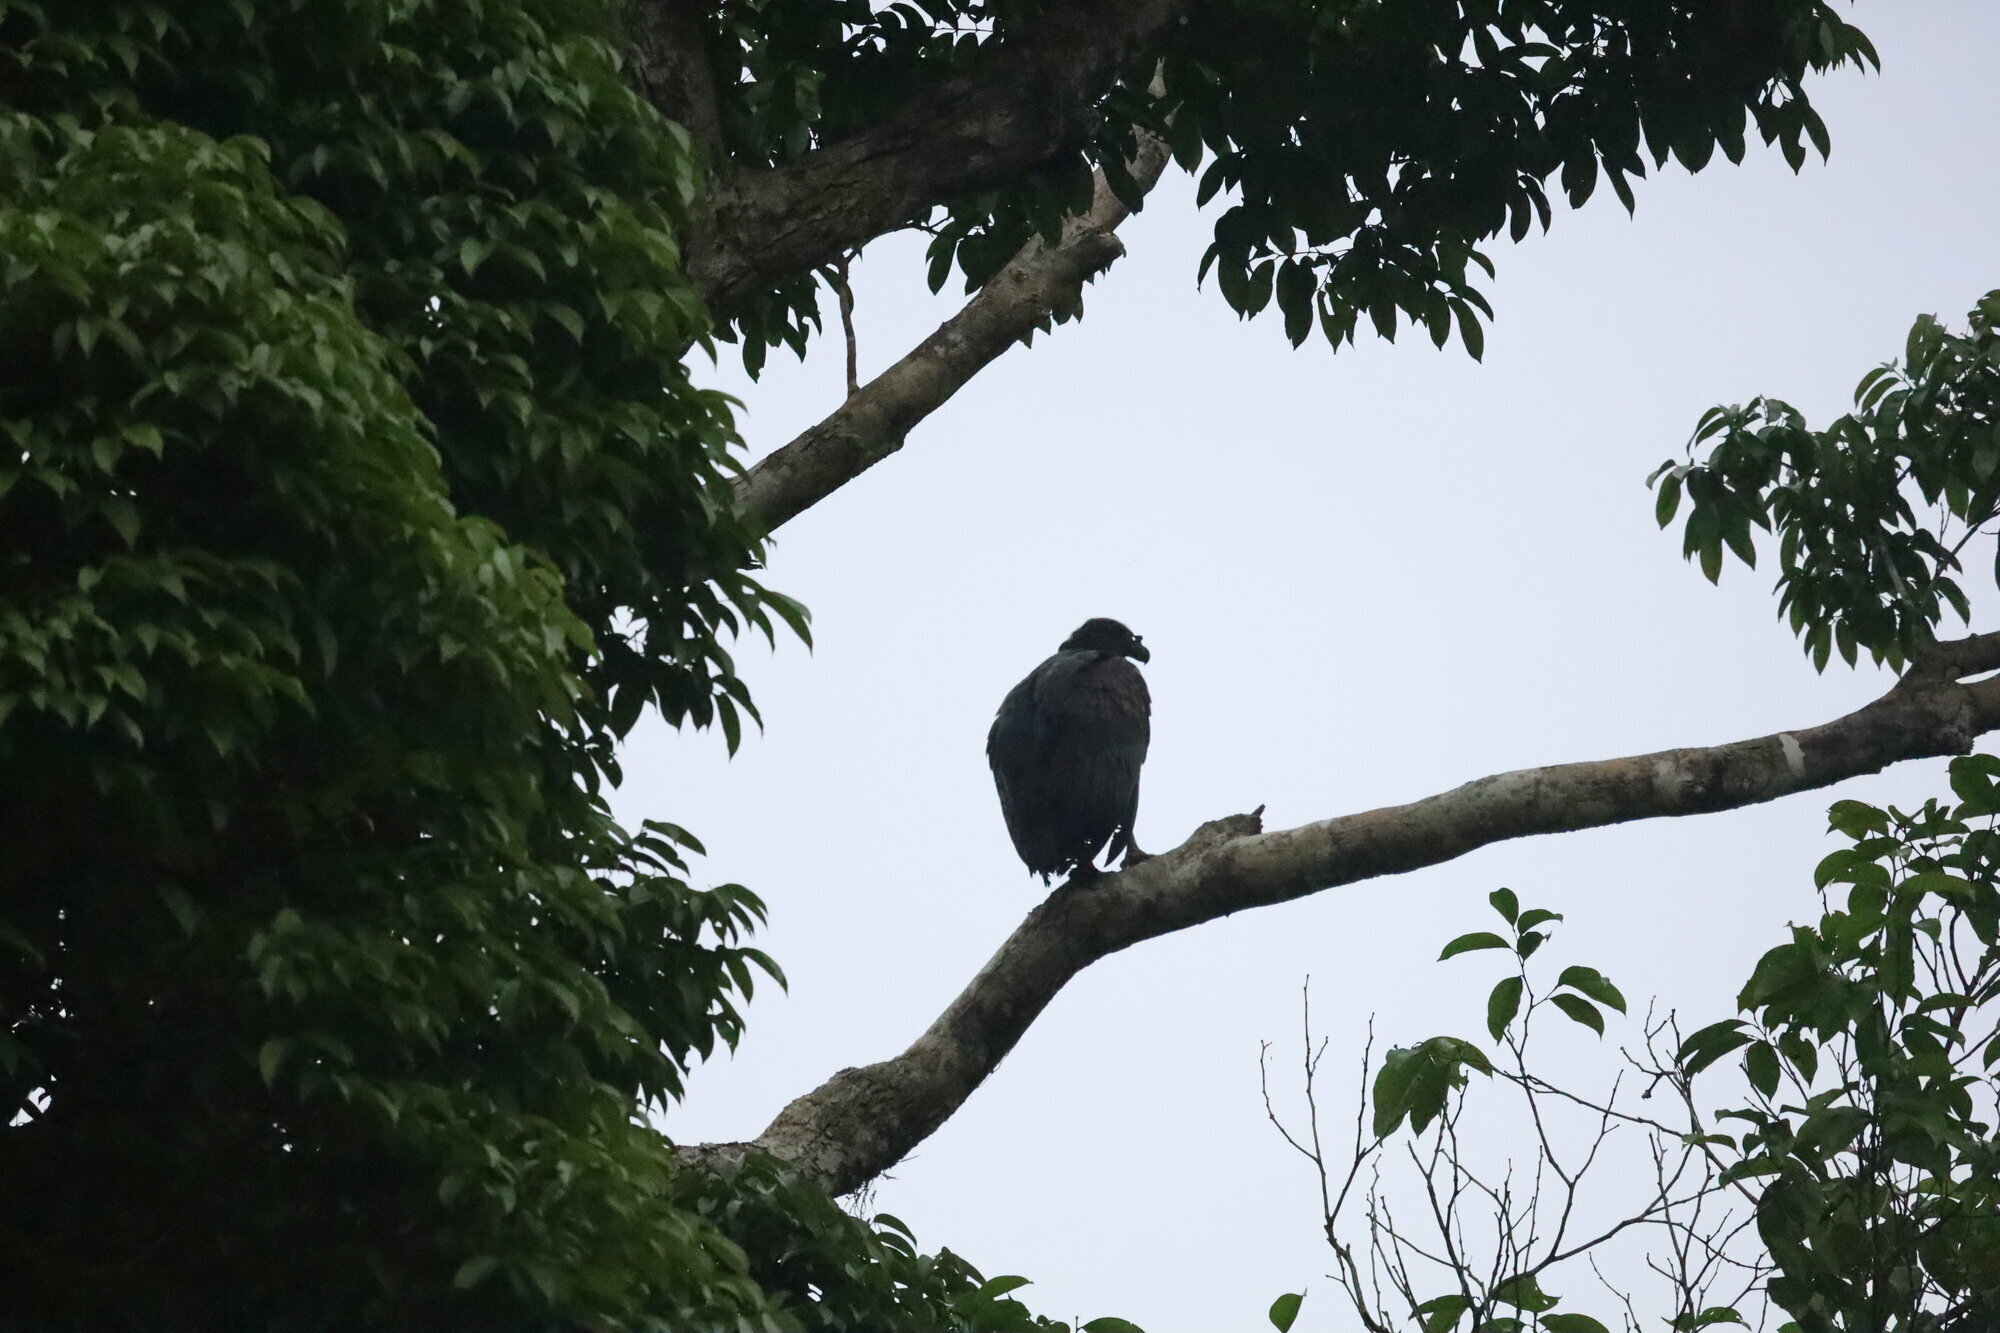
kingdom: Animalia
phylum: Chordata
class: Aves
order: Accipitriformes
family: Cathartidae
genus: Sarcoramphus
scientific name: Sarcoramphus papa
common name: King vulture
